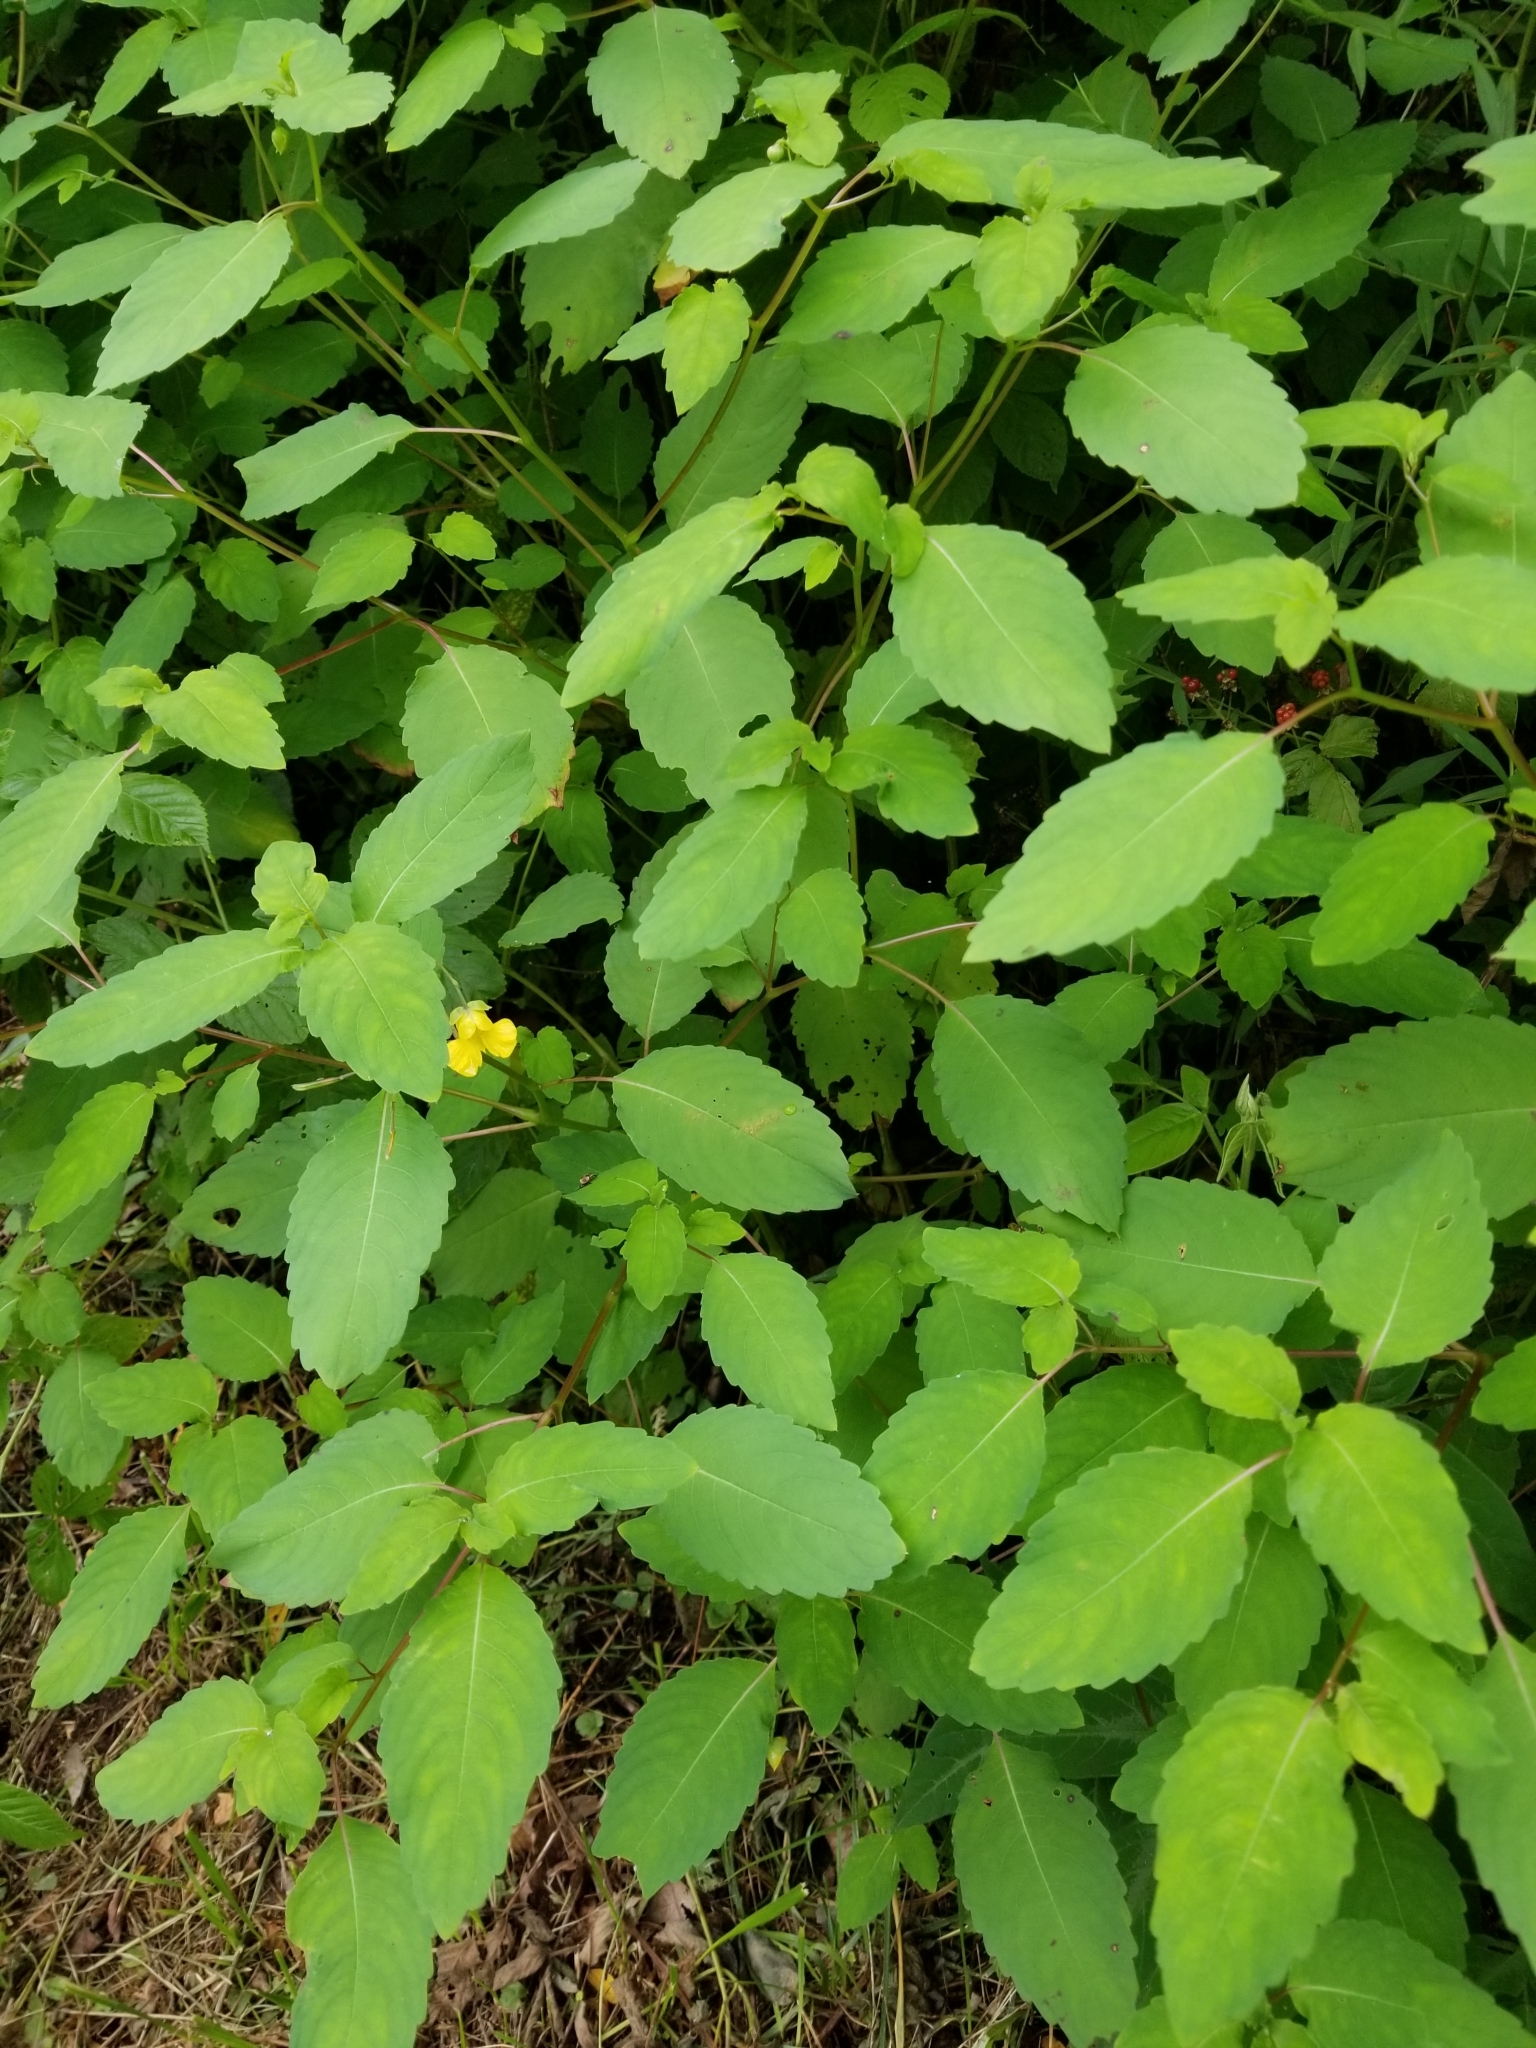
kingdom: Plantae
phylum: Tracheophyta
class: Magnoliopsida
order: Ericales
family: Balsaminaceae
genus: Impatiens
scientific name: Impatiens pallida
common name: Pale snapweed
